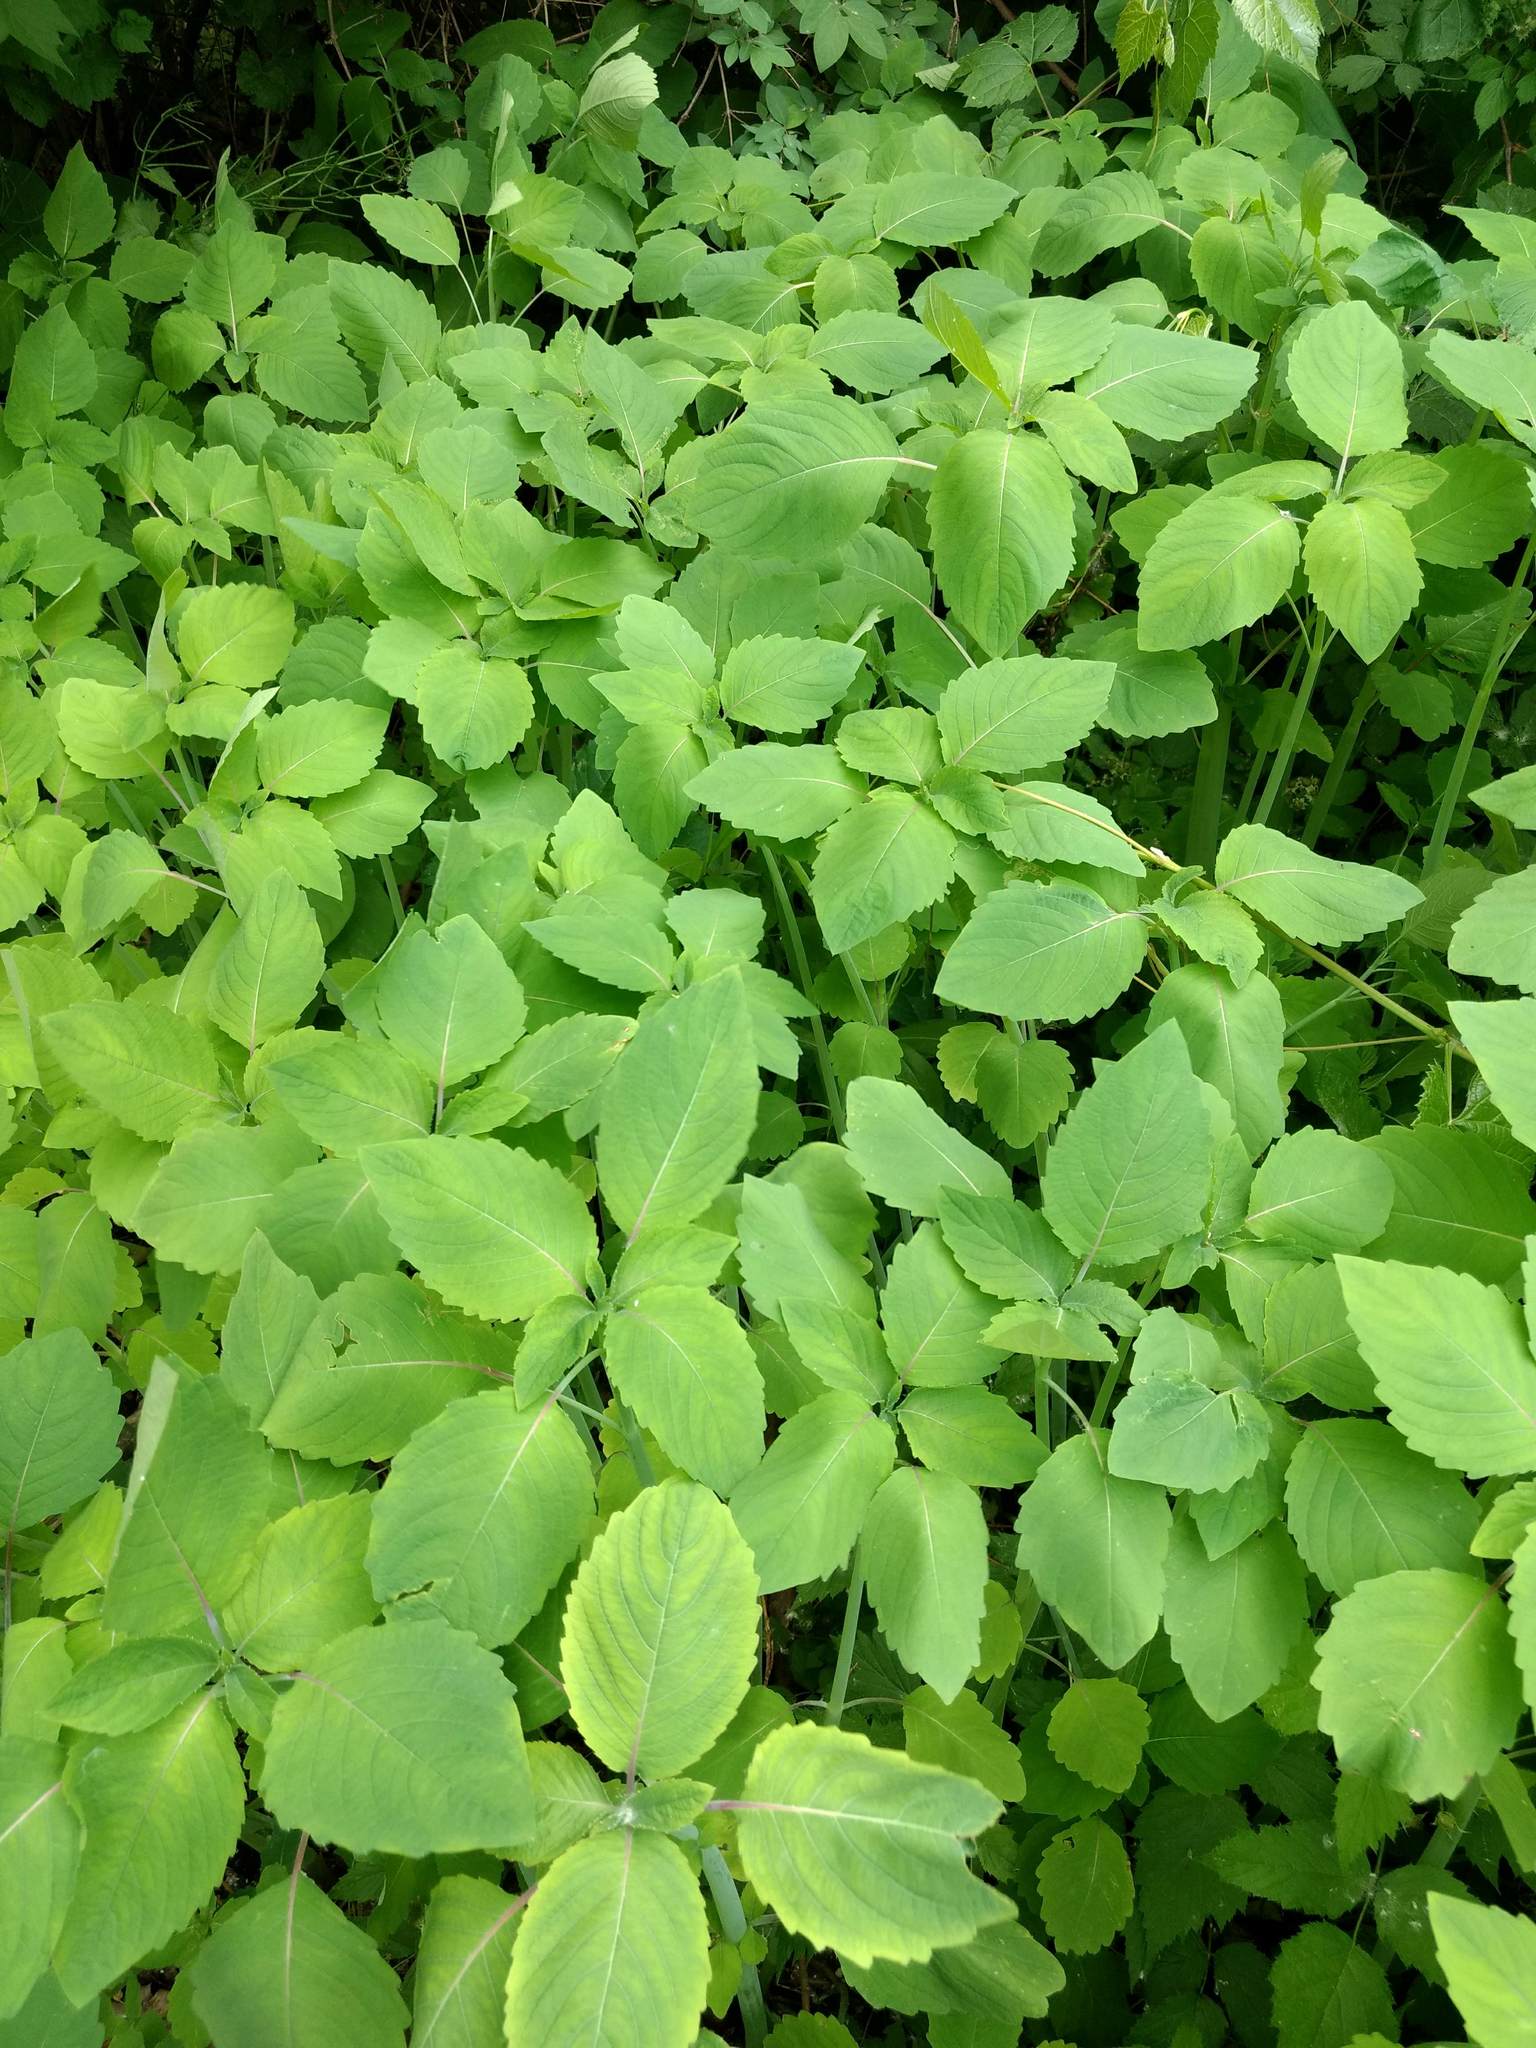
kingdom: Plantae
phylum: Tracheophyta
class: Magnoliopsida
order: Ericales
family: Balsaminaceae
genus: Impatiens
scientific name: Impatiens capensis
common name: Orange balsam
